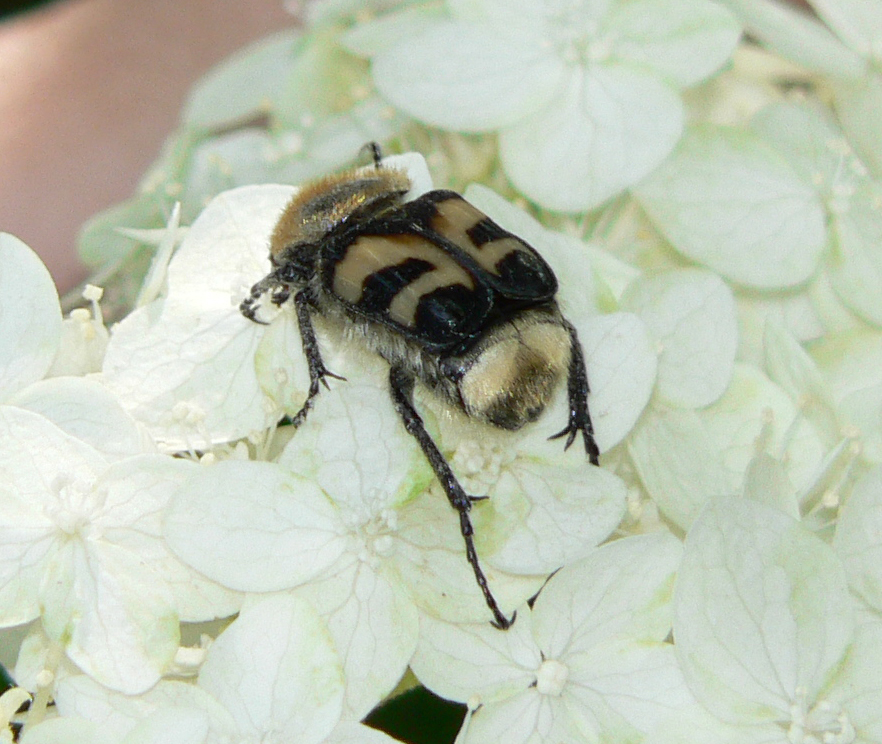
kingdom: Animalia
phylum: Arthropoda
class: Insecta
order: Coleoptera
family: Scarabaeidae
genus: Trichius
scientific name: Trichius fasciatus
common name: Bee beetle
